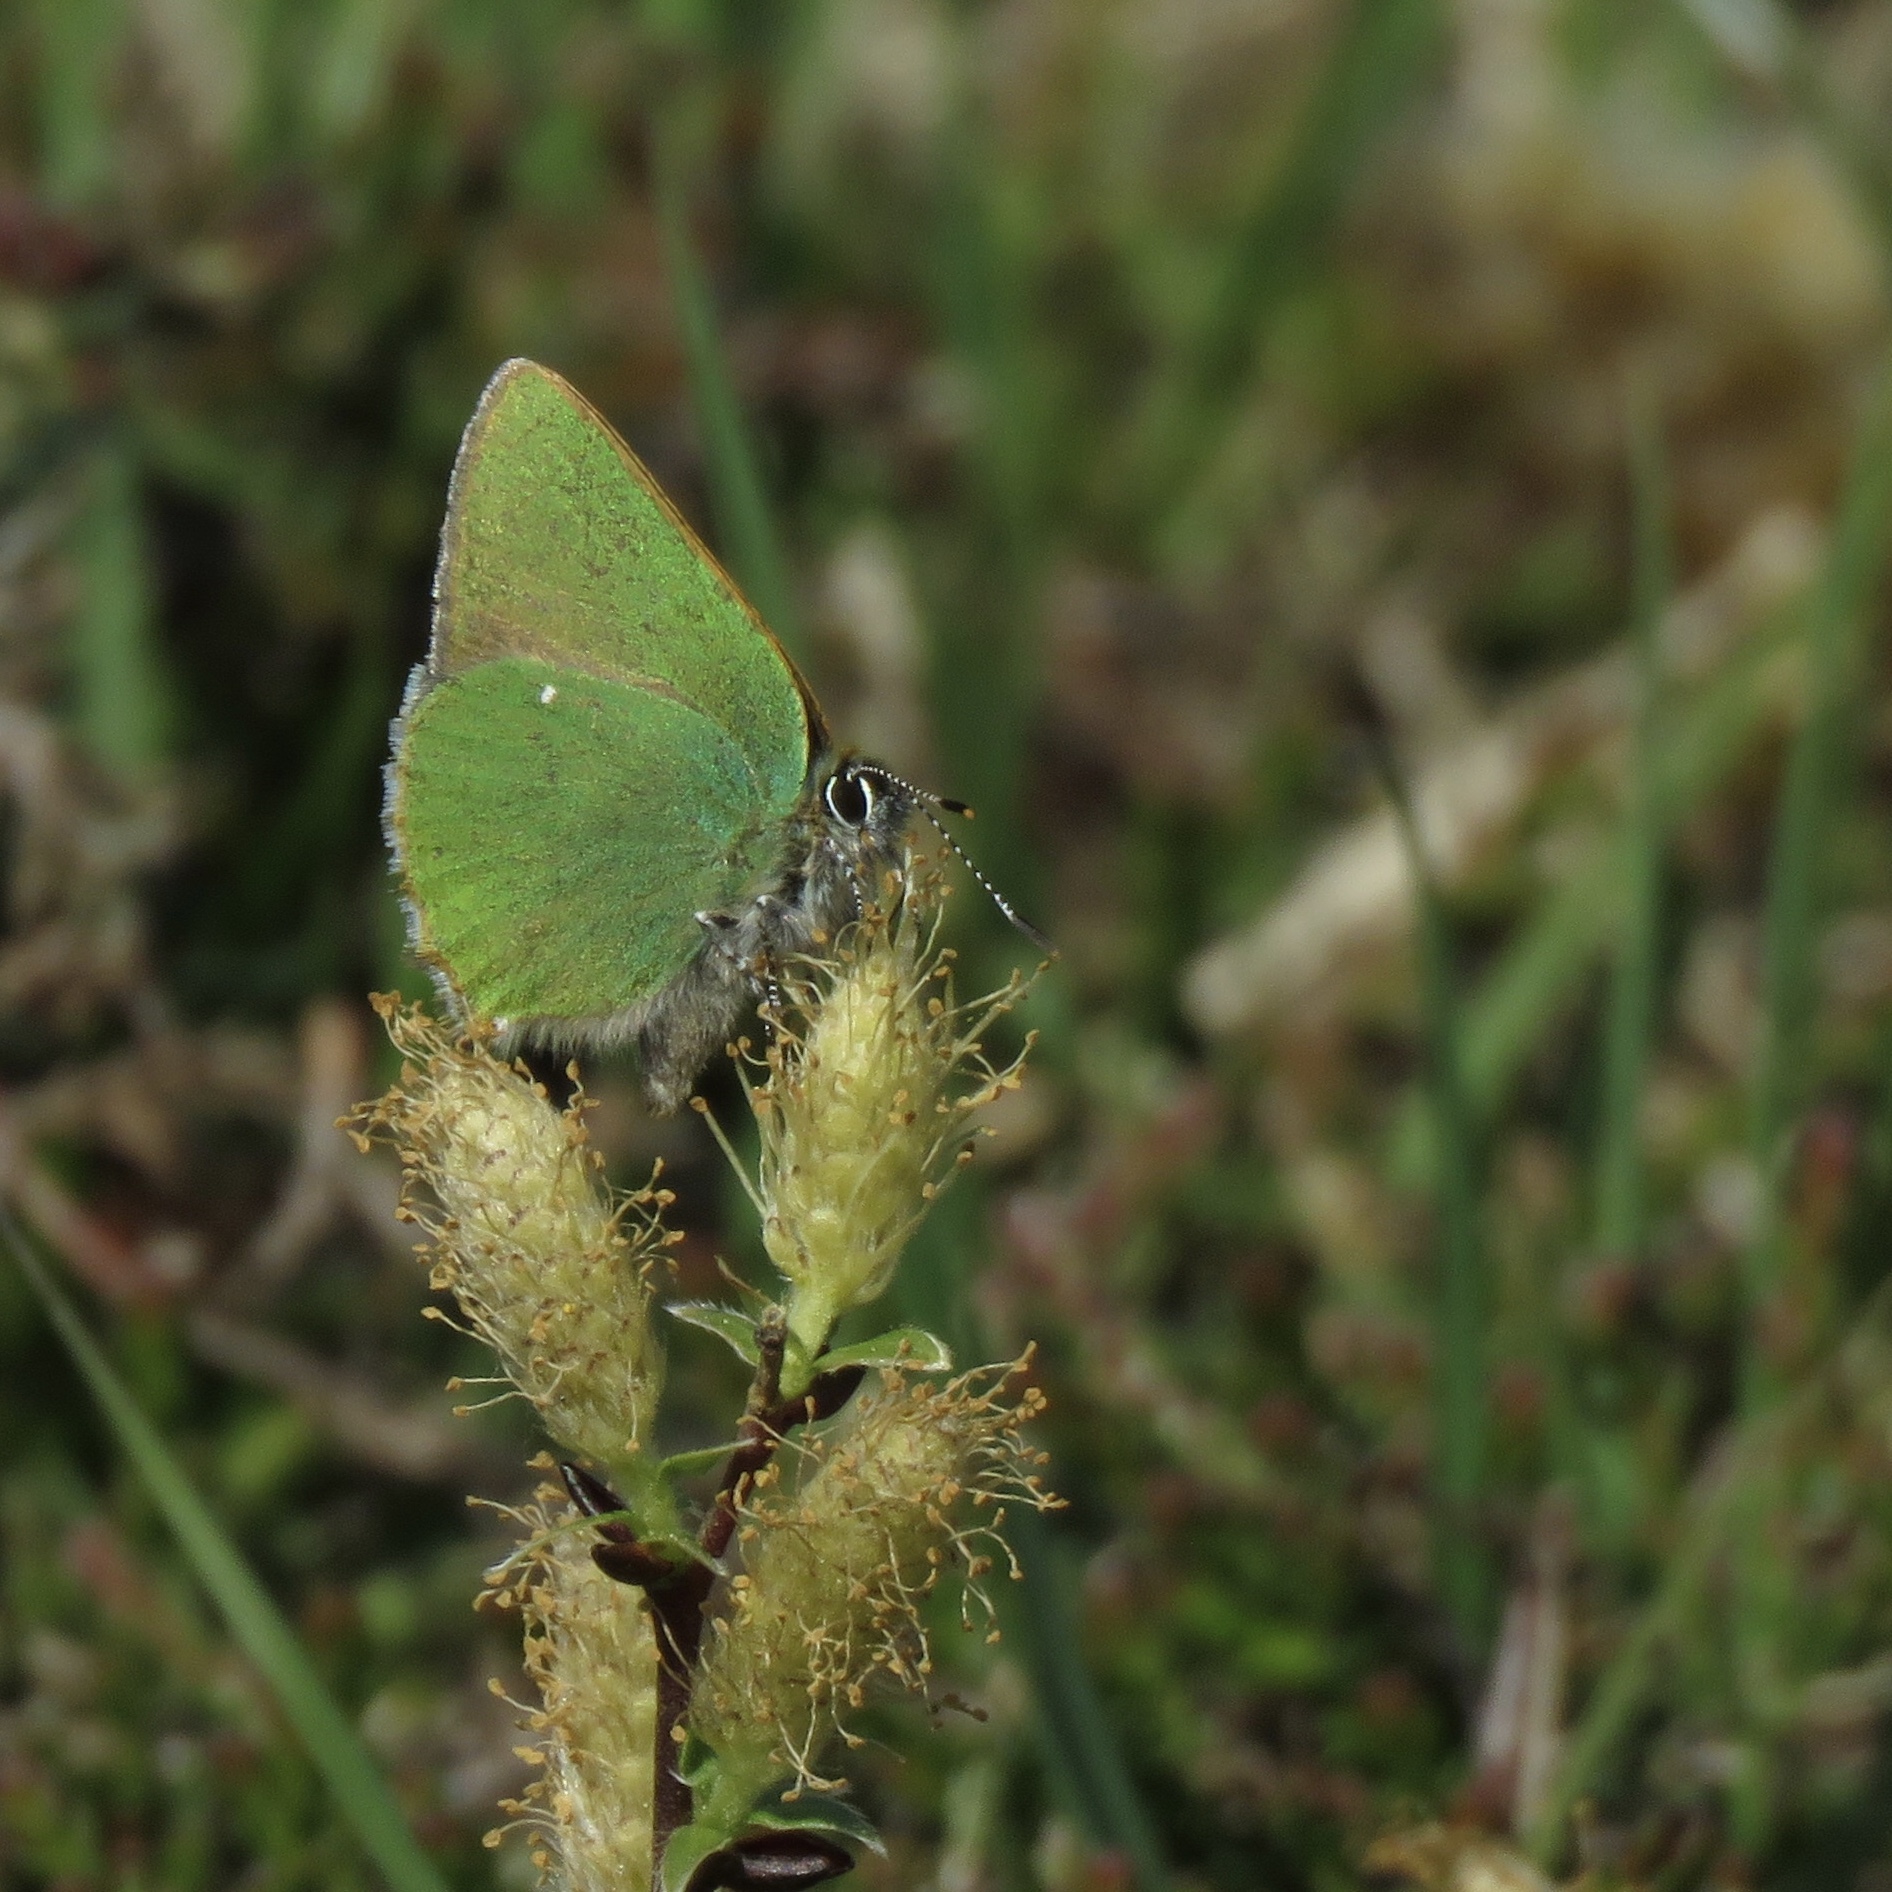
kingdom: Animalia
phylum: Arthropoda
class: Insecta
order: Lepidoptera
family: Lycaenidae
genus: Callophrys
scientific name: Callophrys rubi
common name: Green hairstreak
